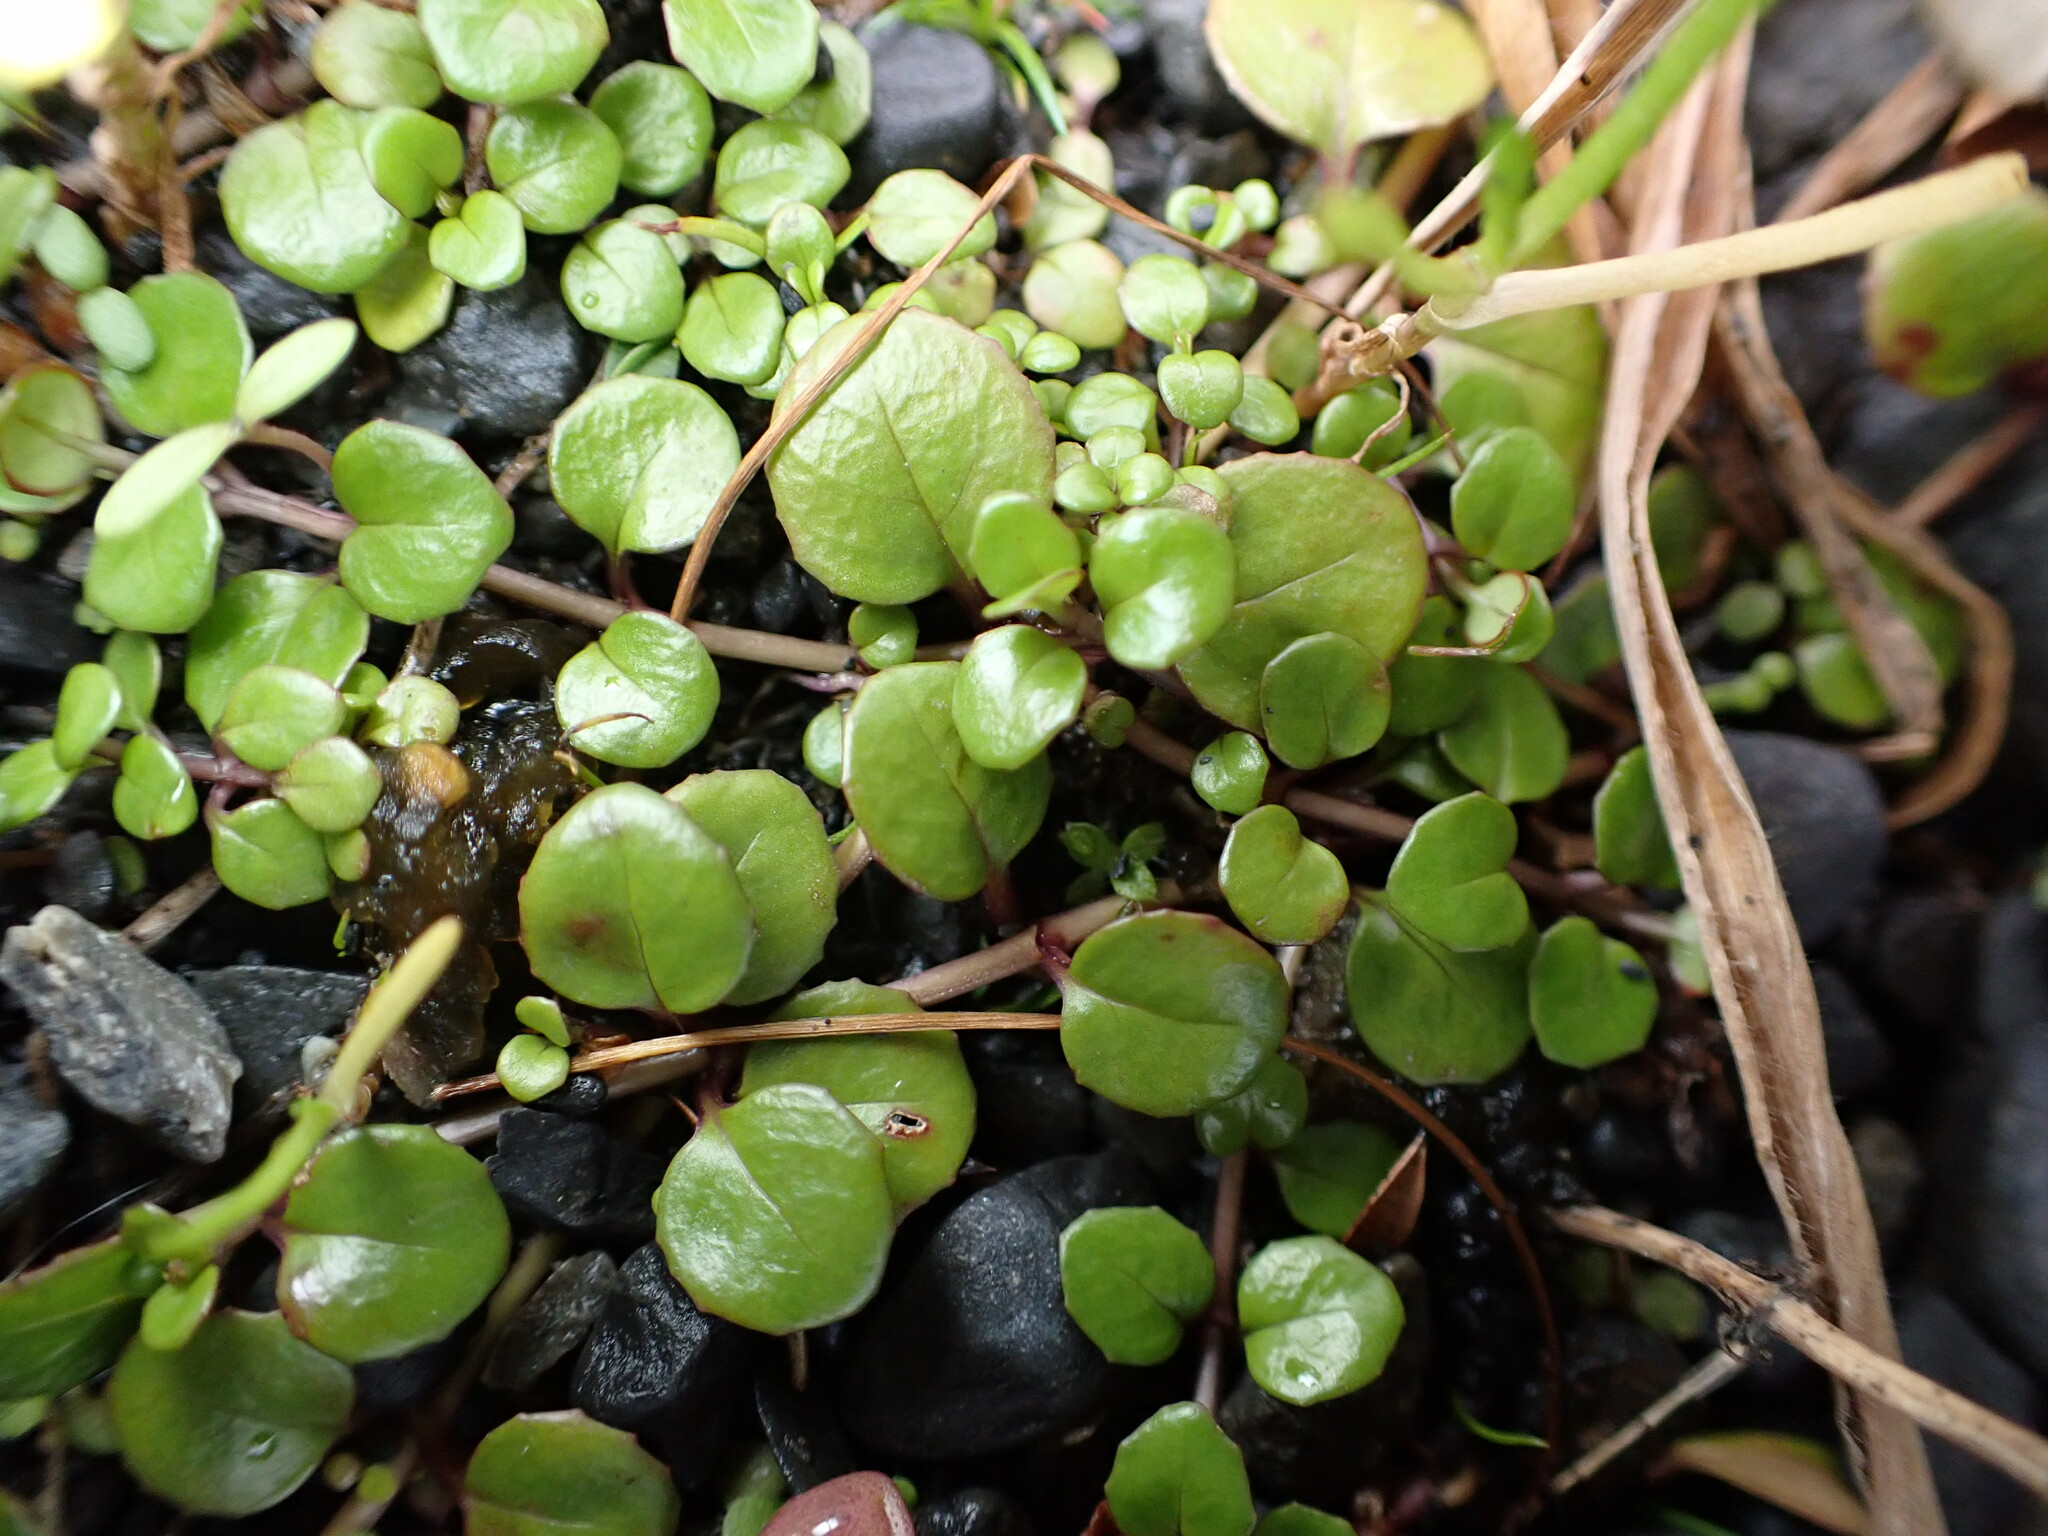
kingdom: Plantae
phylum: Tracheophyta
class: Magnoliopsida
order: Myrtales
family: Onagraceae
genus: Epilobium
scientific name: Epilobium brunnescens
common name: New zealand willowherb
